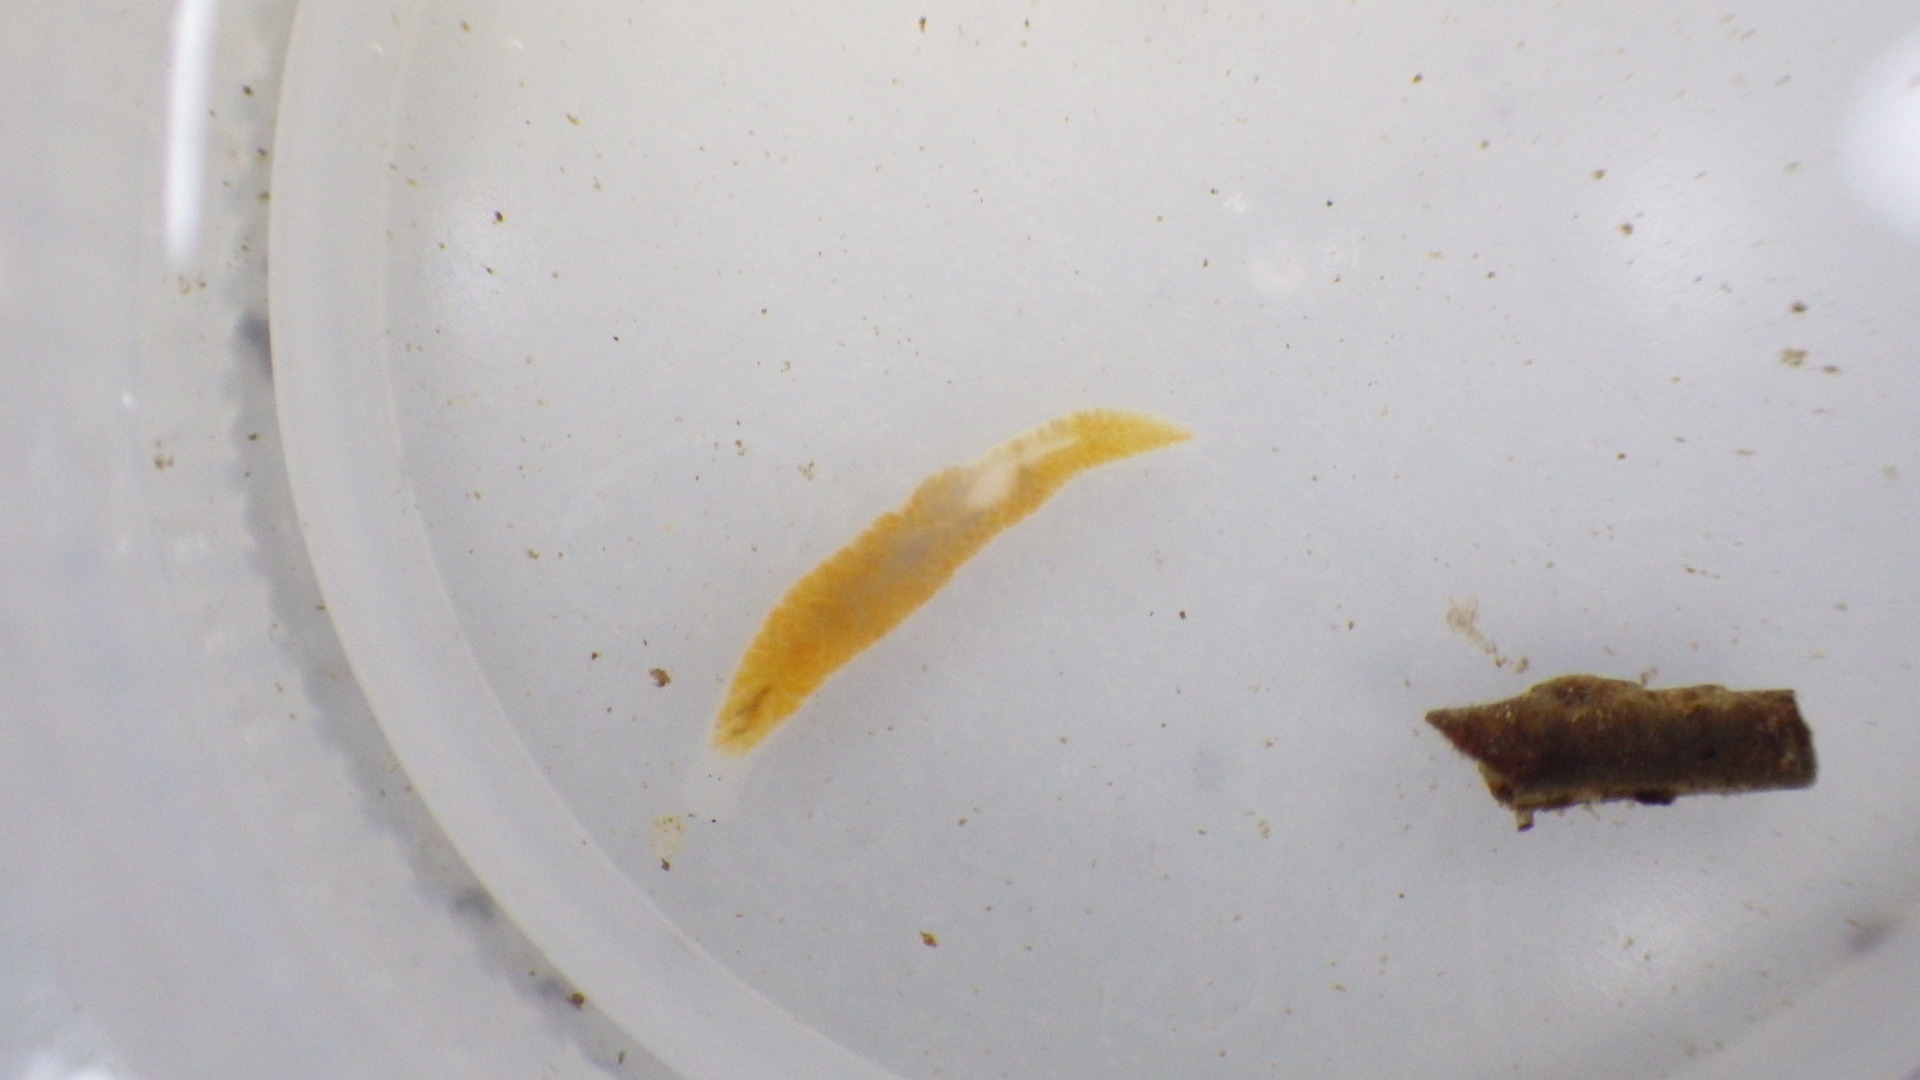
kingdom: Animalia
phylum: Platyhelminthes
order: Tricladida
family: Planariidae
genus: Phagocata
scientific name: Phagocata morgani
